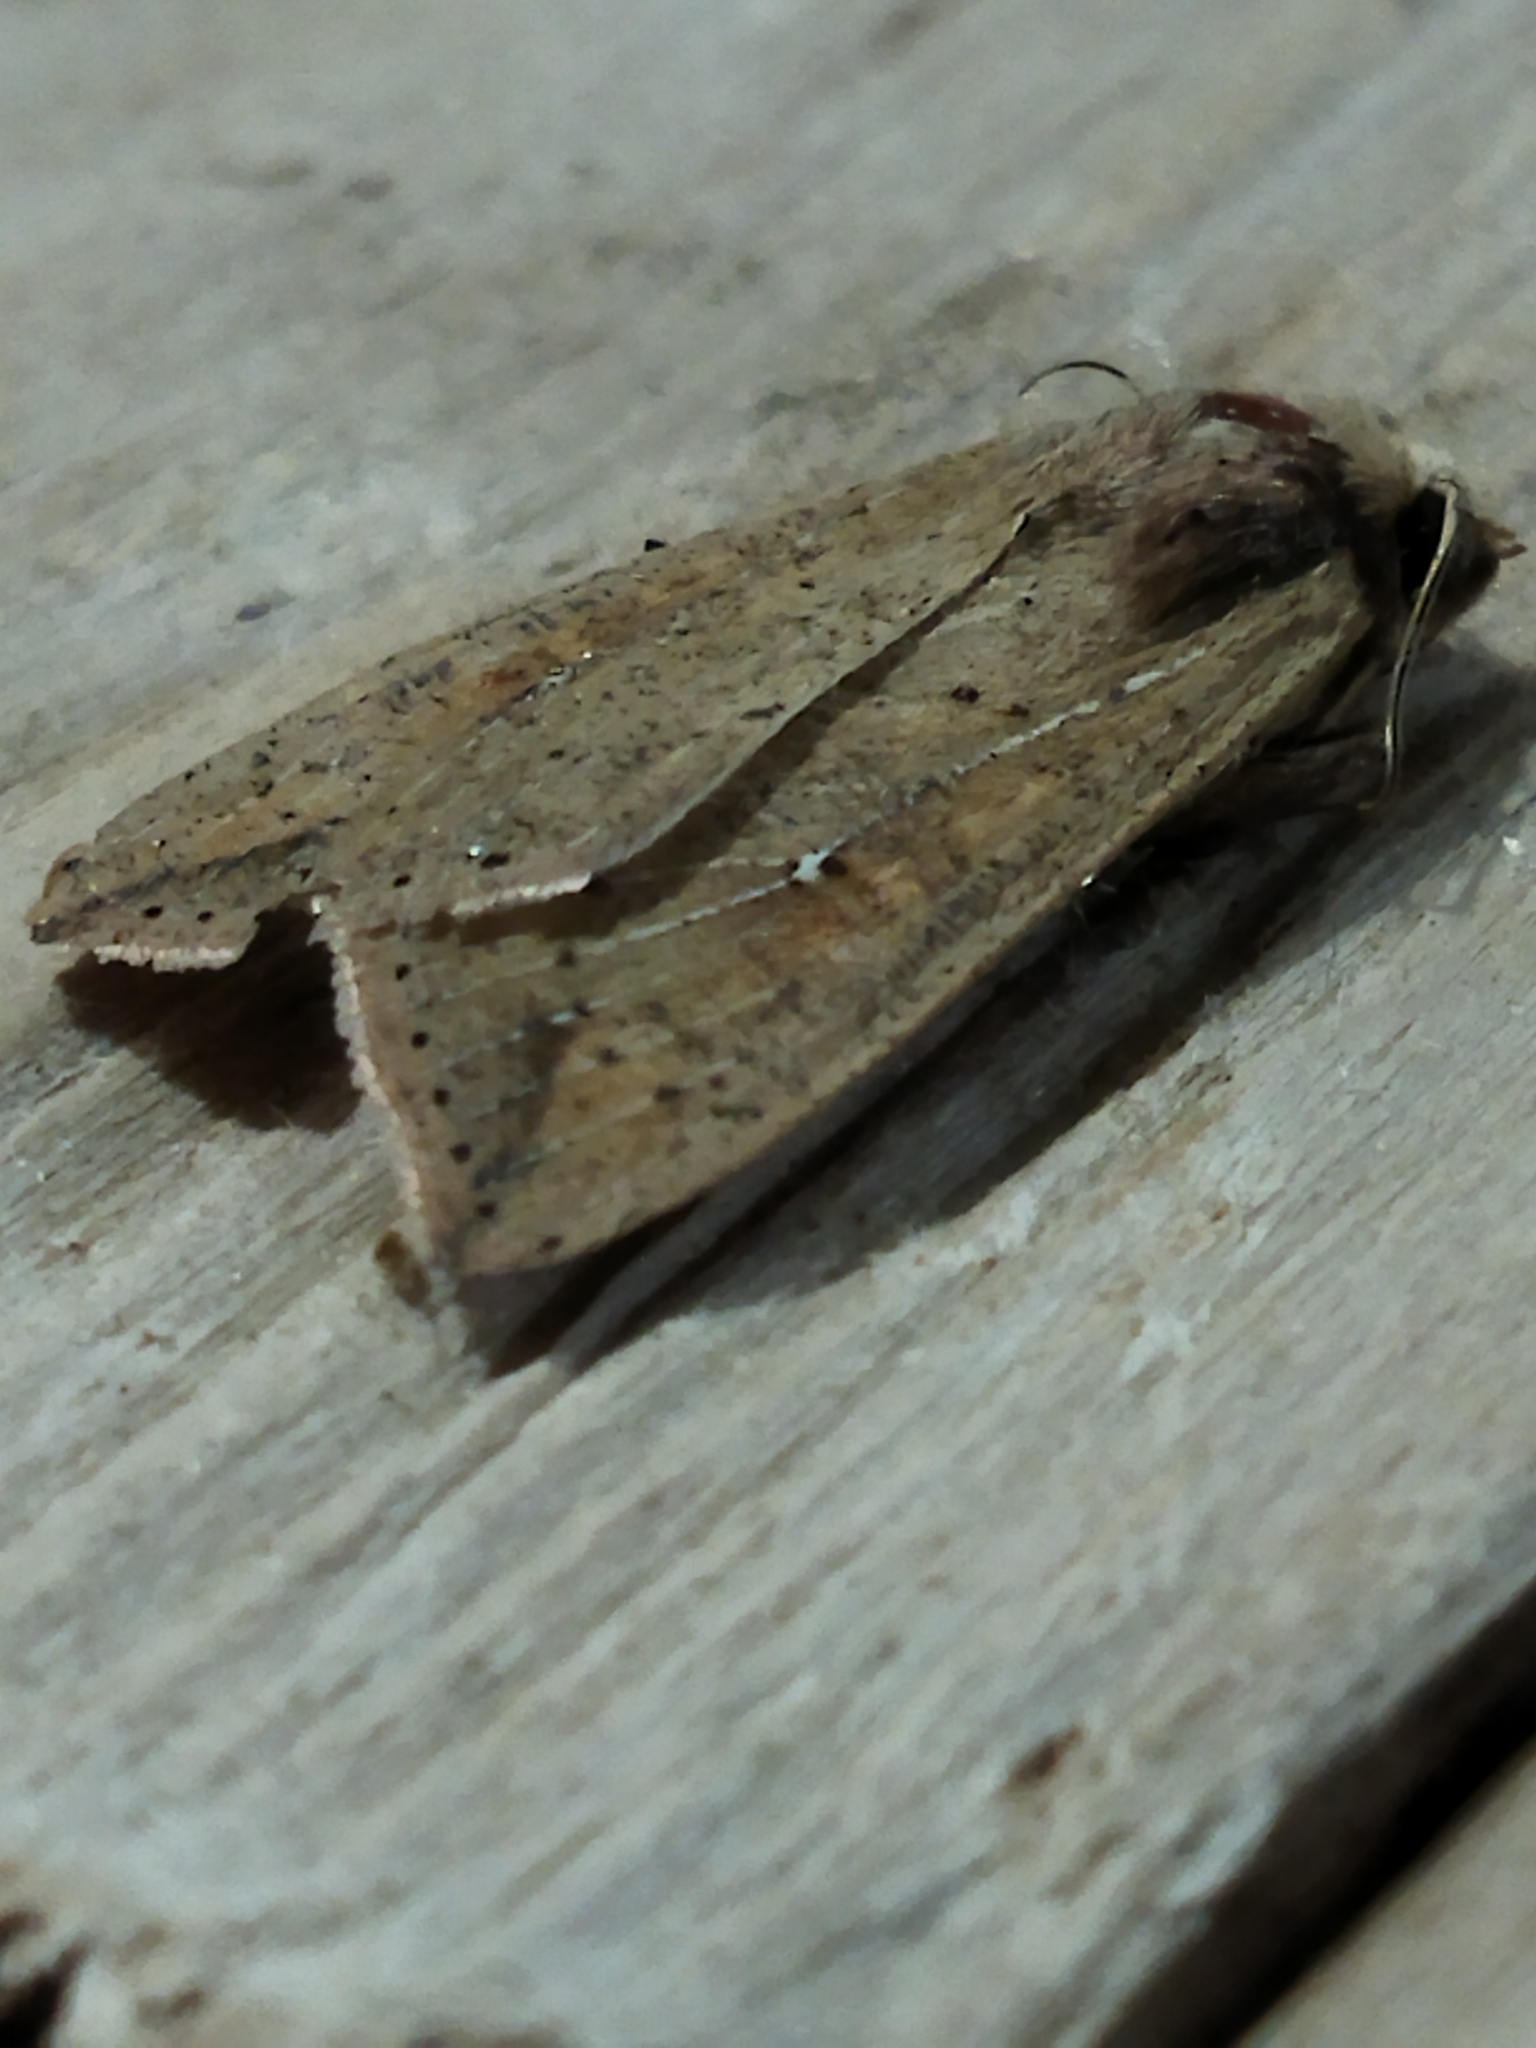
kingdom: Animalia
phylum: Arthropoda
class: Insecta
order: Lepidoptera
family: Noctuidae
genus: Mythimna
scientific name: Mythimna unipuncta
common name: White-speck
